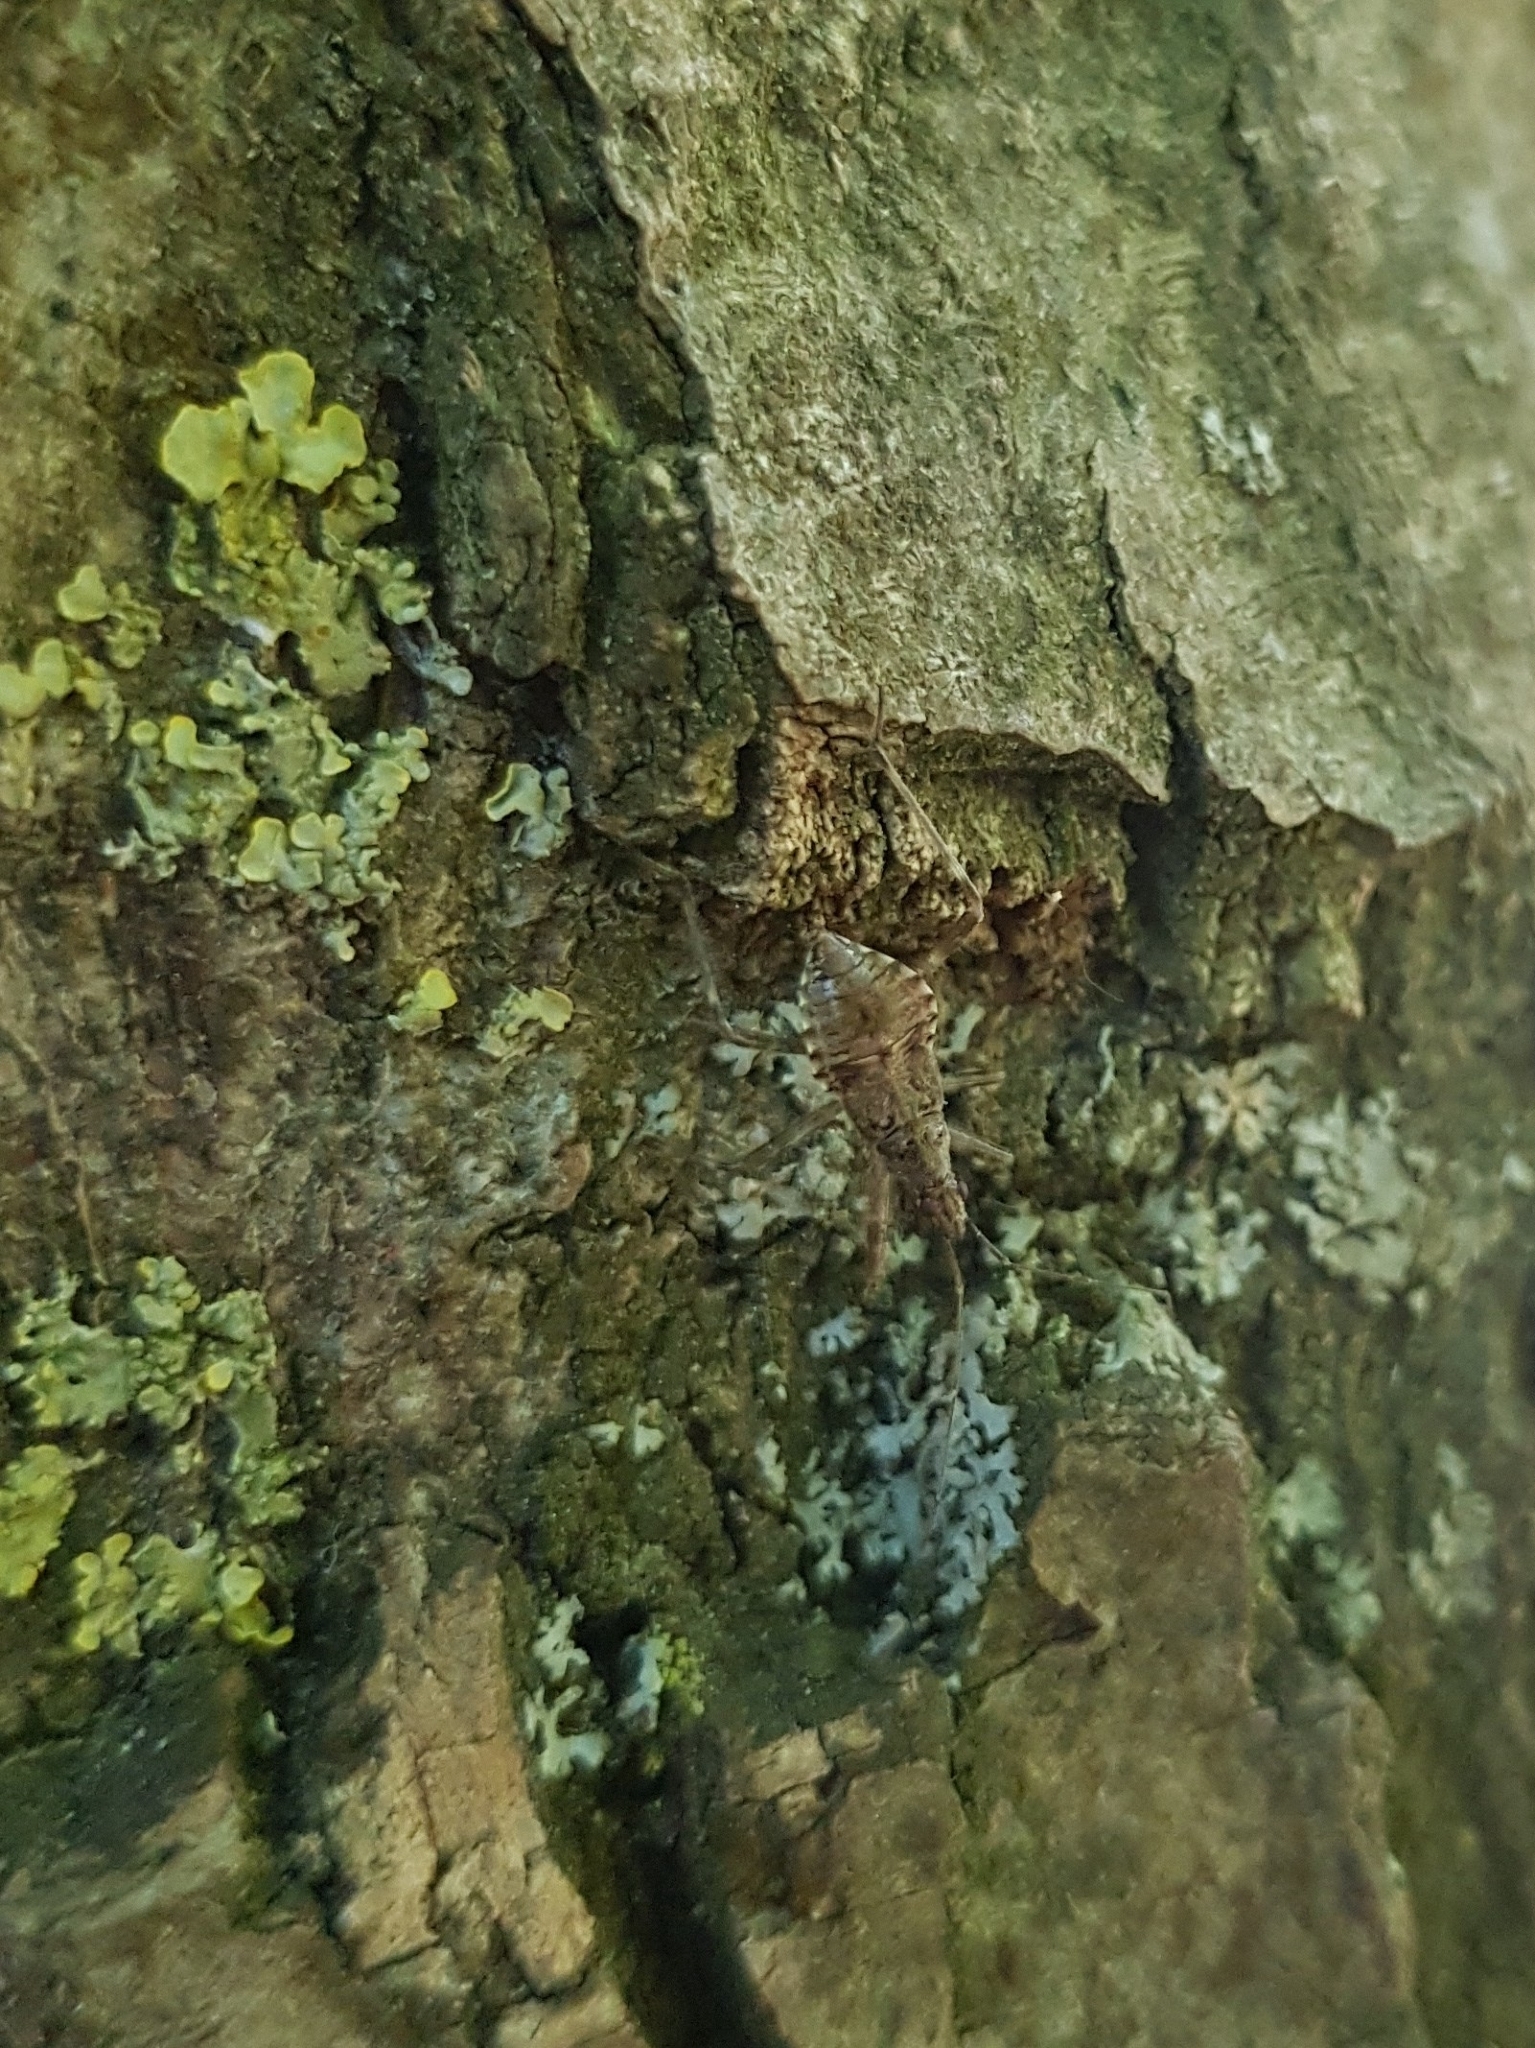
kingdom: Animalia
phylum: Arthropoda
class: Insecta
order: Hemiptera
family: Nabidae
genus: Himacerus
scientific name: Himacerus apterus
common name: Tree damsel bug
